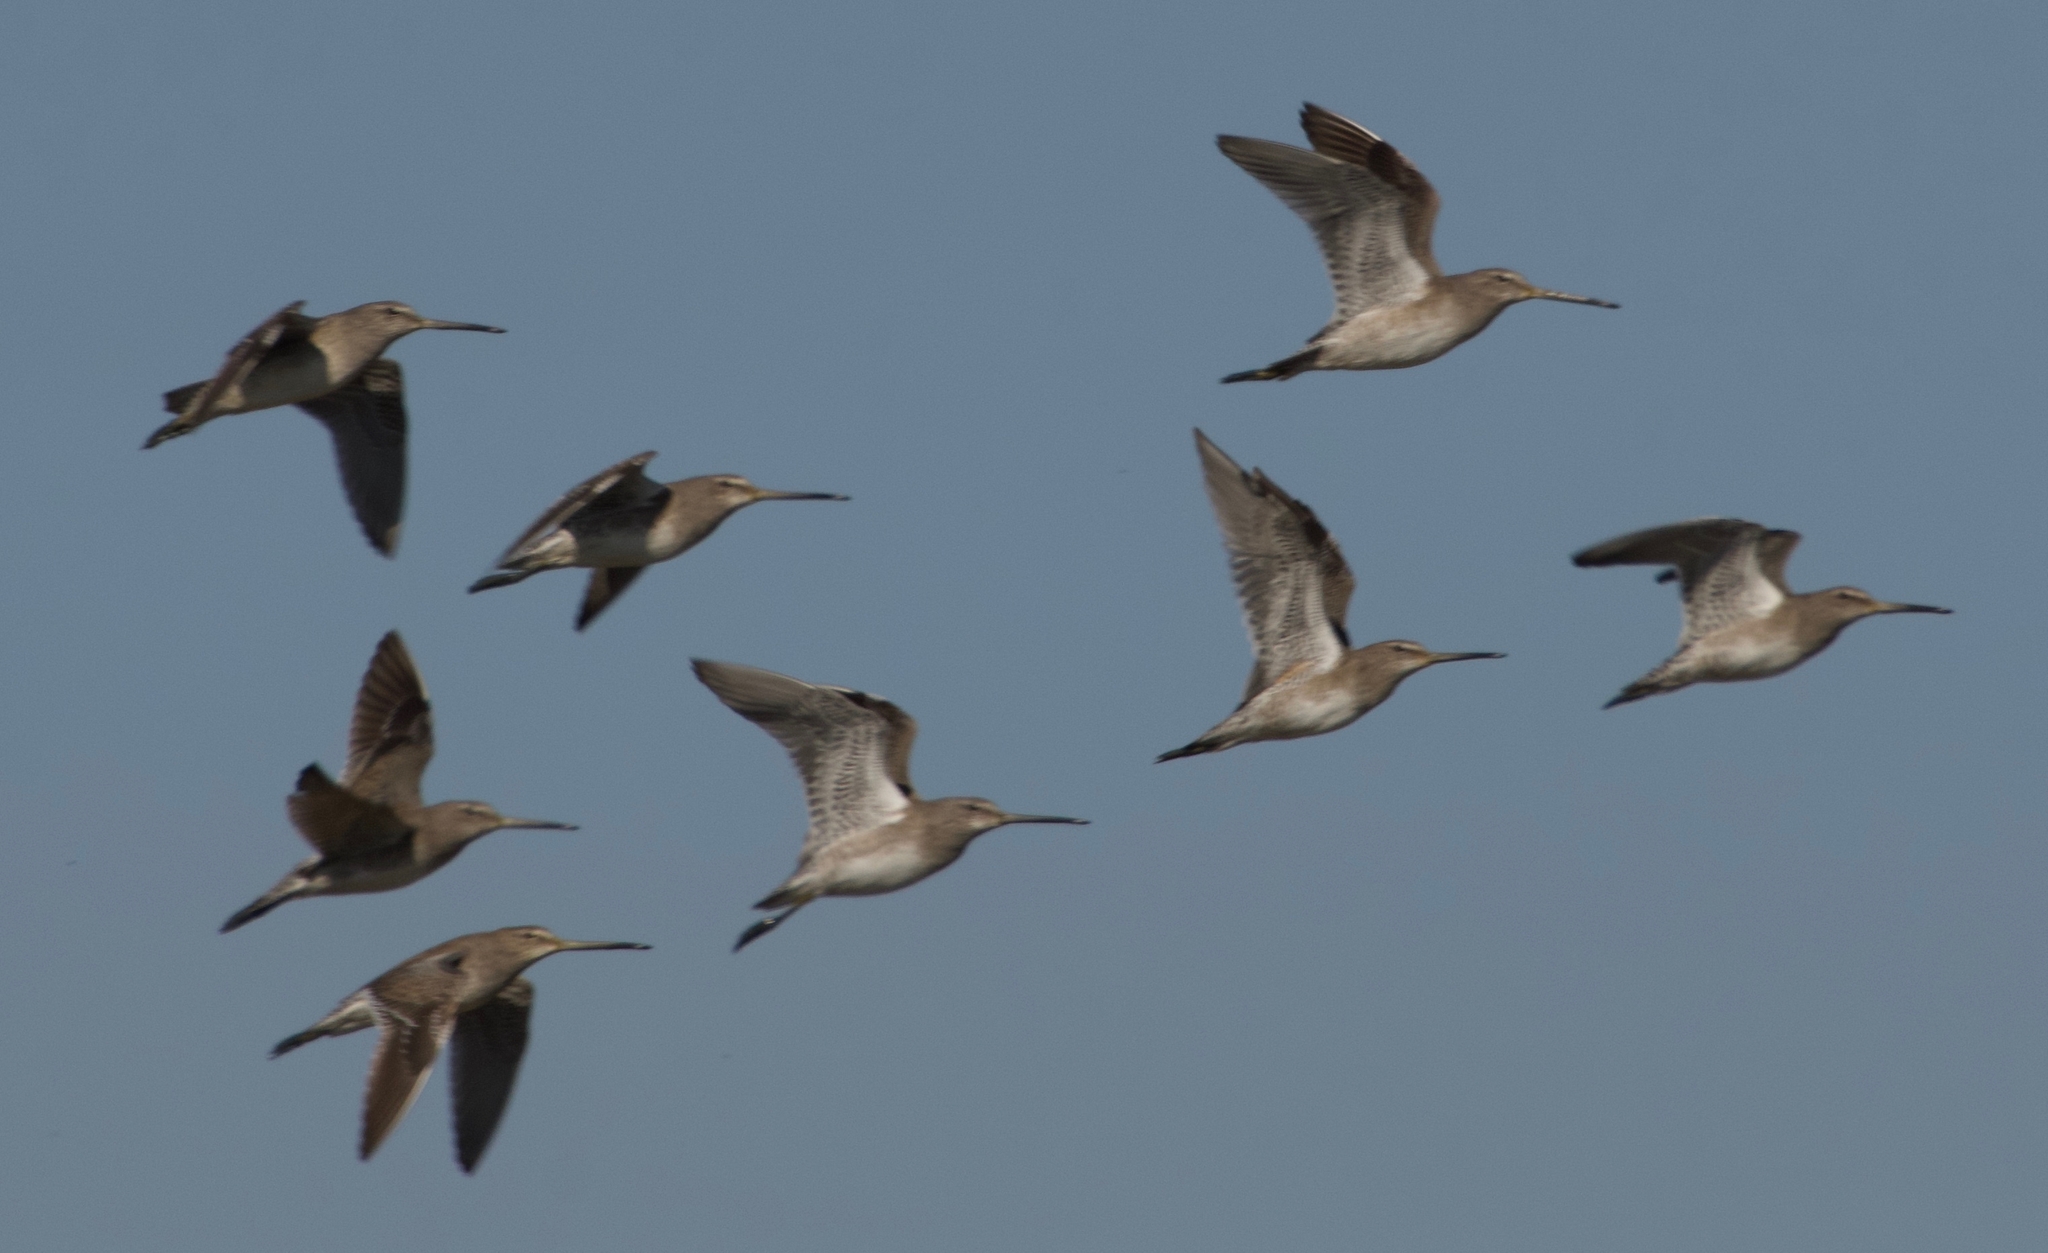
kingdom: Animalia
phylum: Chordata
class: Aves
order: Charadriiformes
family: Scolopacidae
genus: Limnodromus
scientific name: Limnodromus scolopaceus
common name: Long-billed dowitcher
